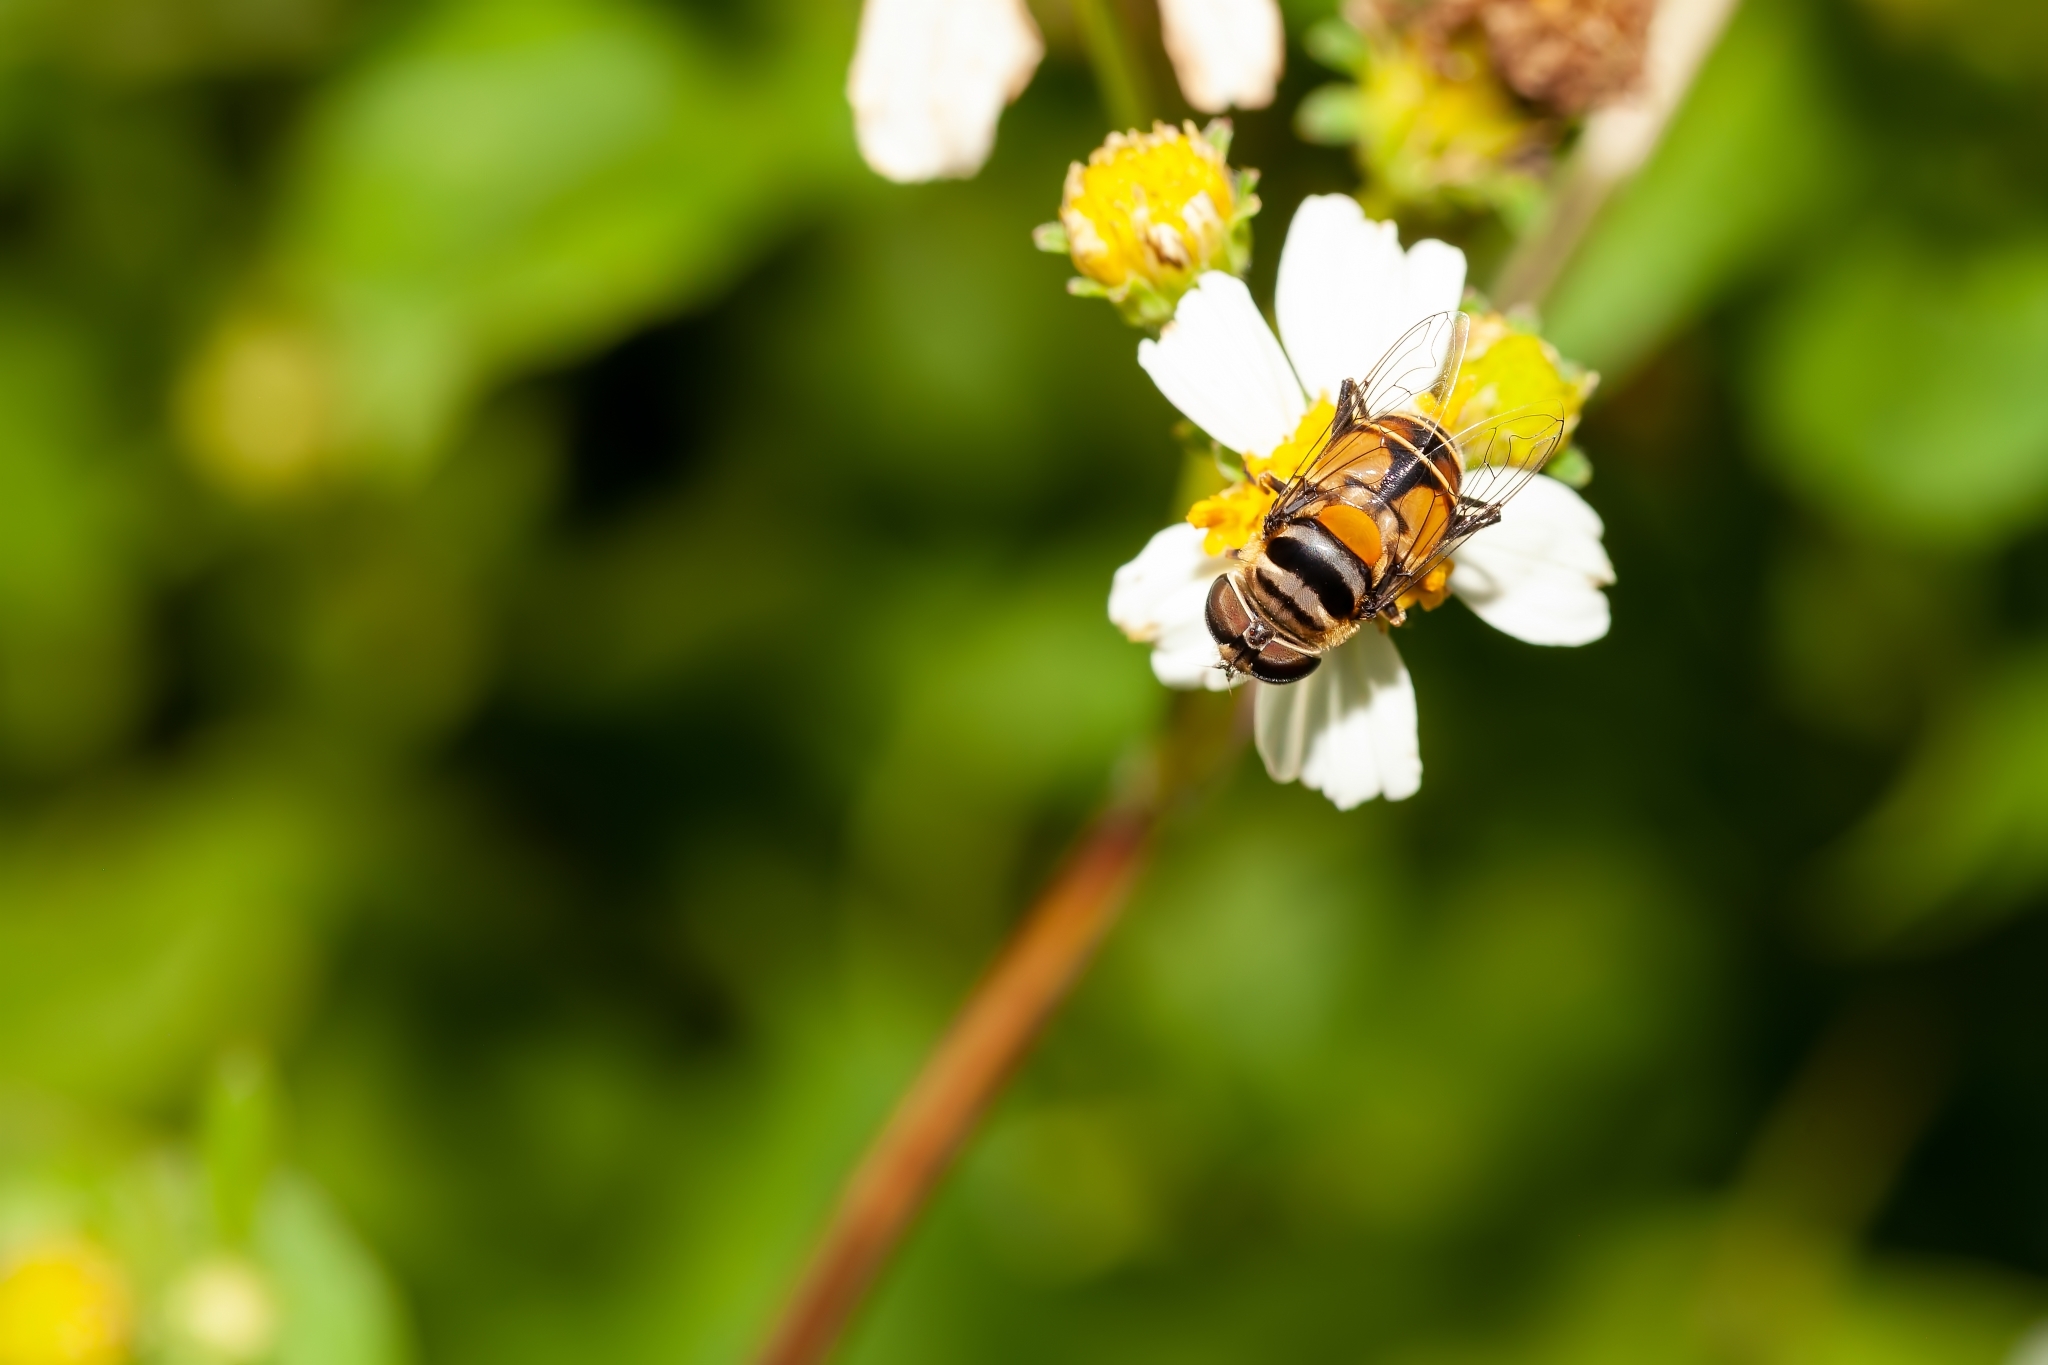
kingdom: Animalia
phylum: Arthropoda
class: Insecta
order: Diptera
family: Syrphidae
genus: Palpada
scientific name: Palpada vinetorum
